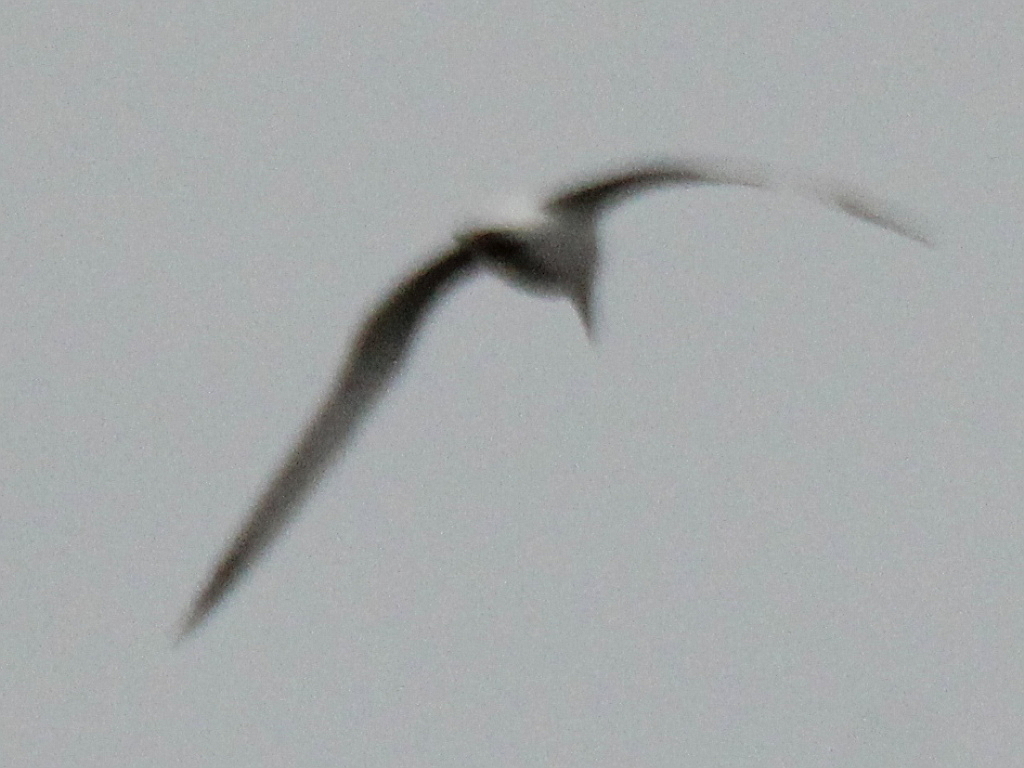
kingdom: Animalia
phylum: Chordata
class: Aves
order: Charadriiformes
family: Laridae
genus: Gelochelidon
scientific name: Gelochelidon nilotica
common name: Gull-billed tern
